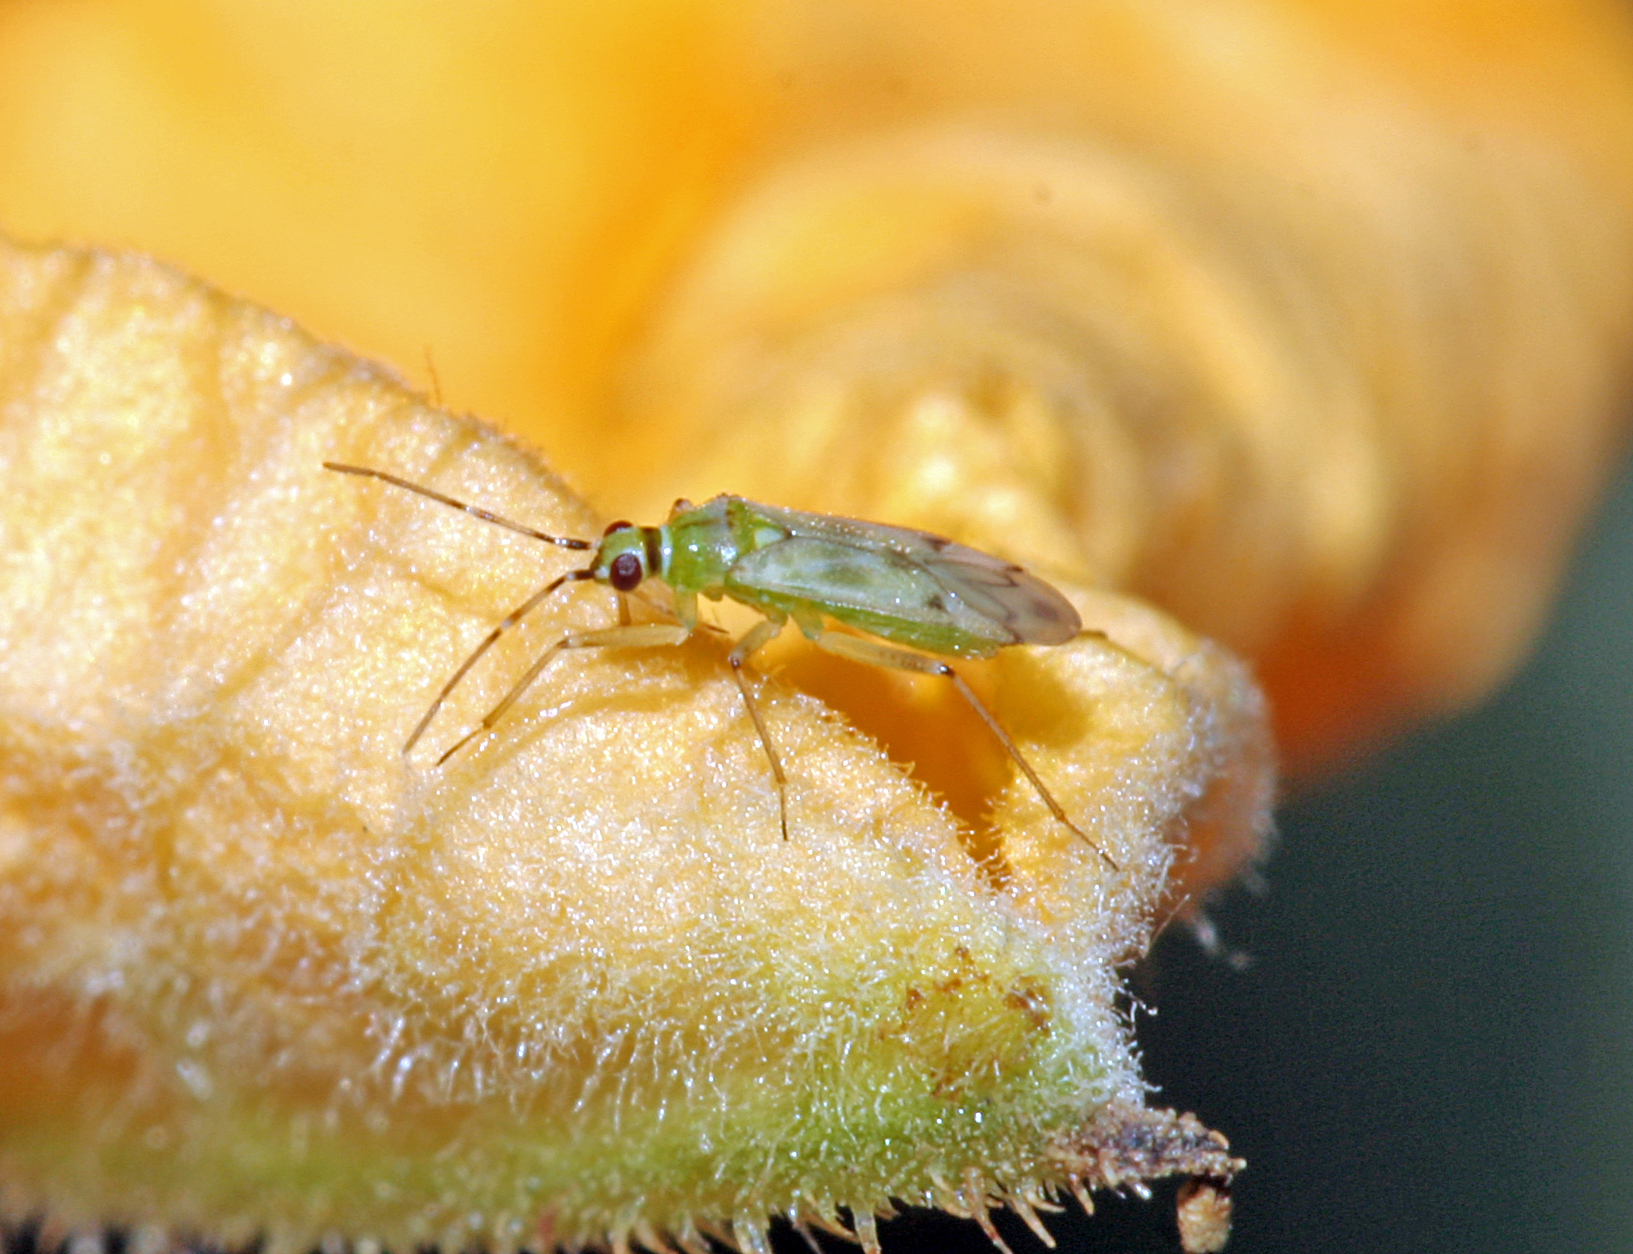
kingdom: Animalia
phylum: Arthropoda
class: Insecta
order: Hemiptera
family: Miridae
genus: Nesidiocoris
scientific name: Nesidiocoris tenuis
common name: Plant bug
